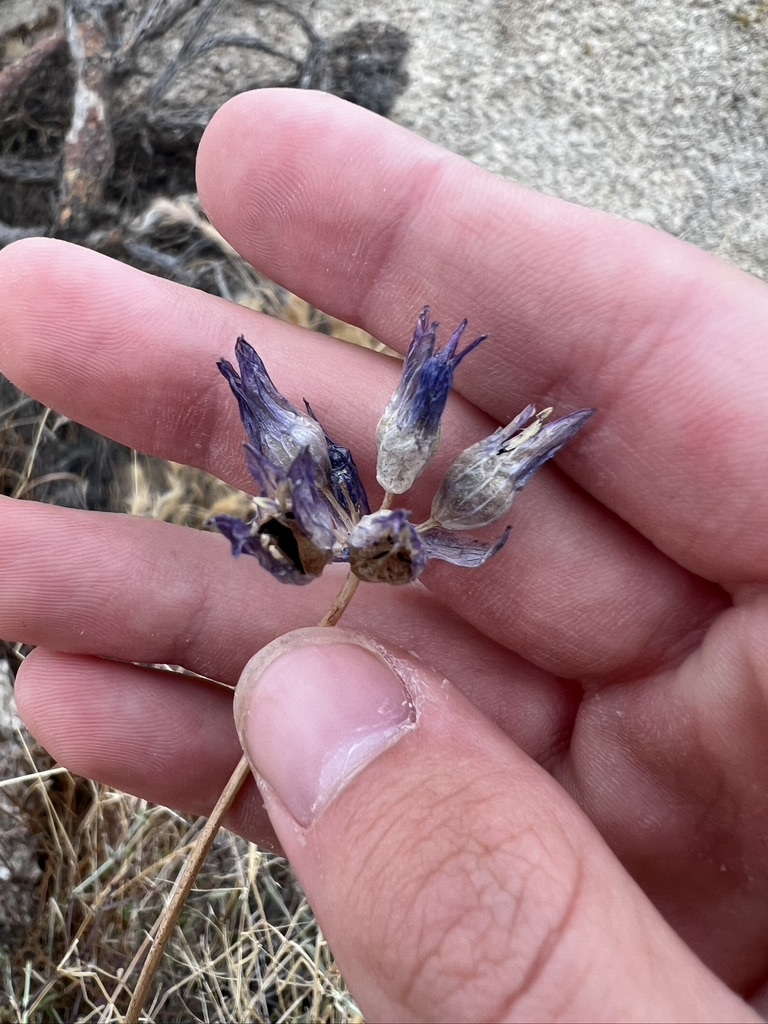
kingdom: Plantae
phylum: Tracheophyta
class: Liliopsida
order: Asparagales
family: Asparagaceae
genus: Dipterostemon
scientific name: Dipterostemon capitatus
